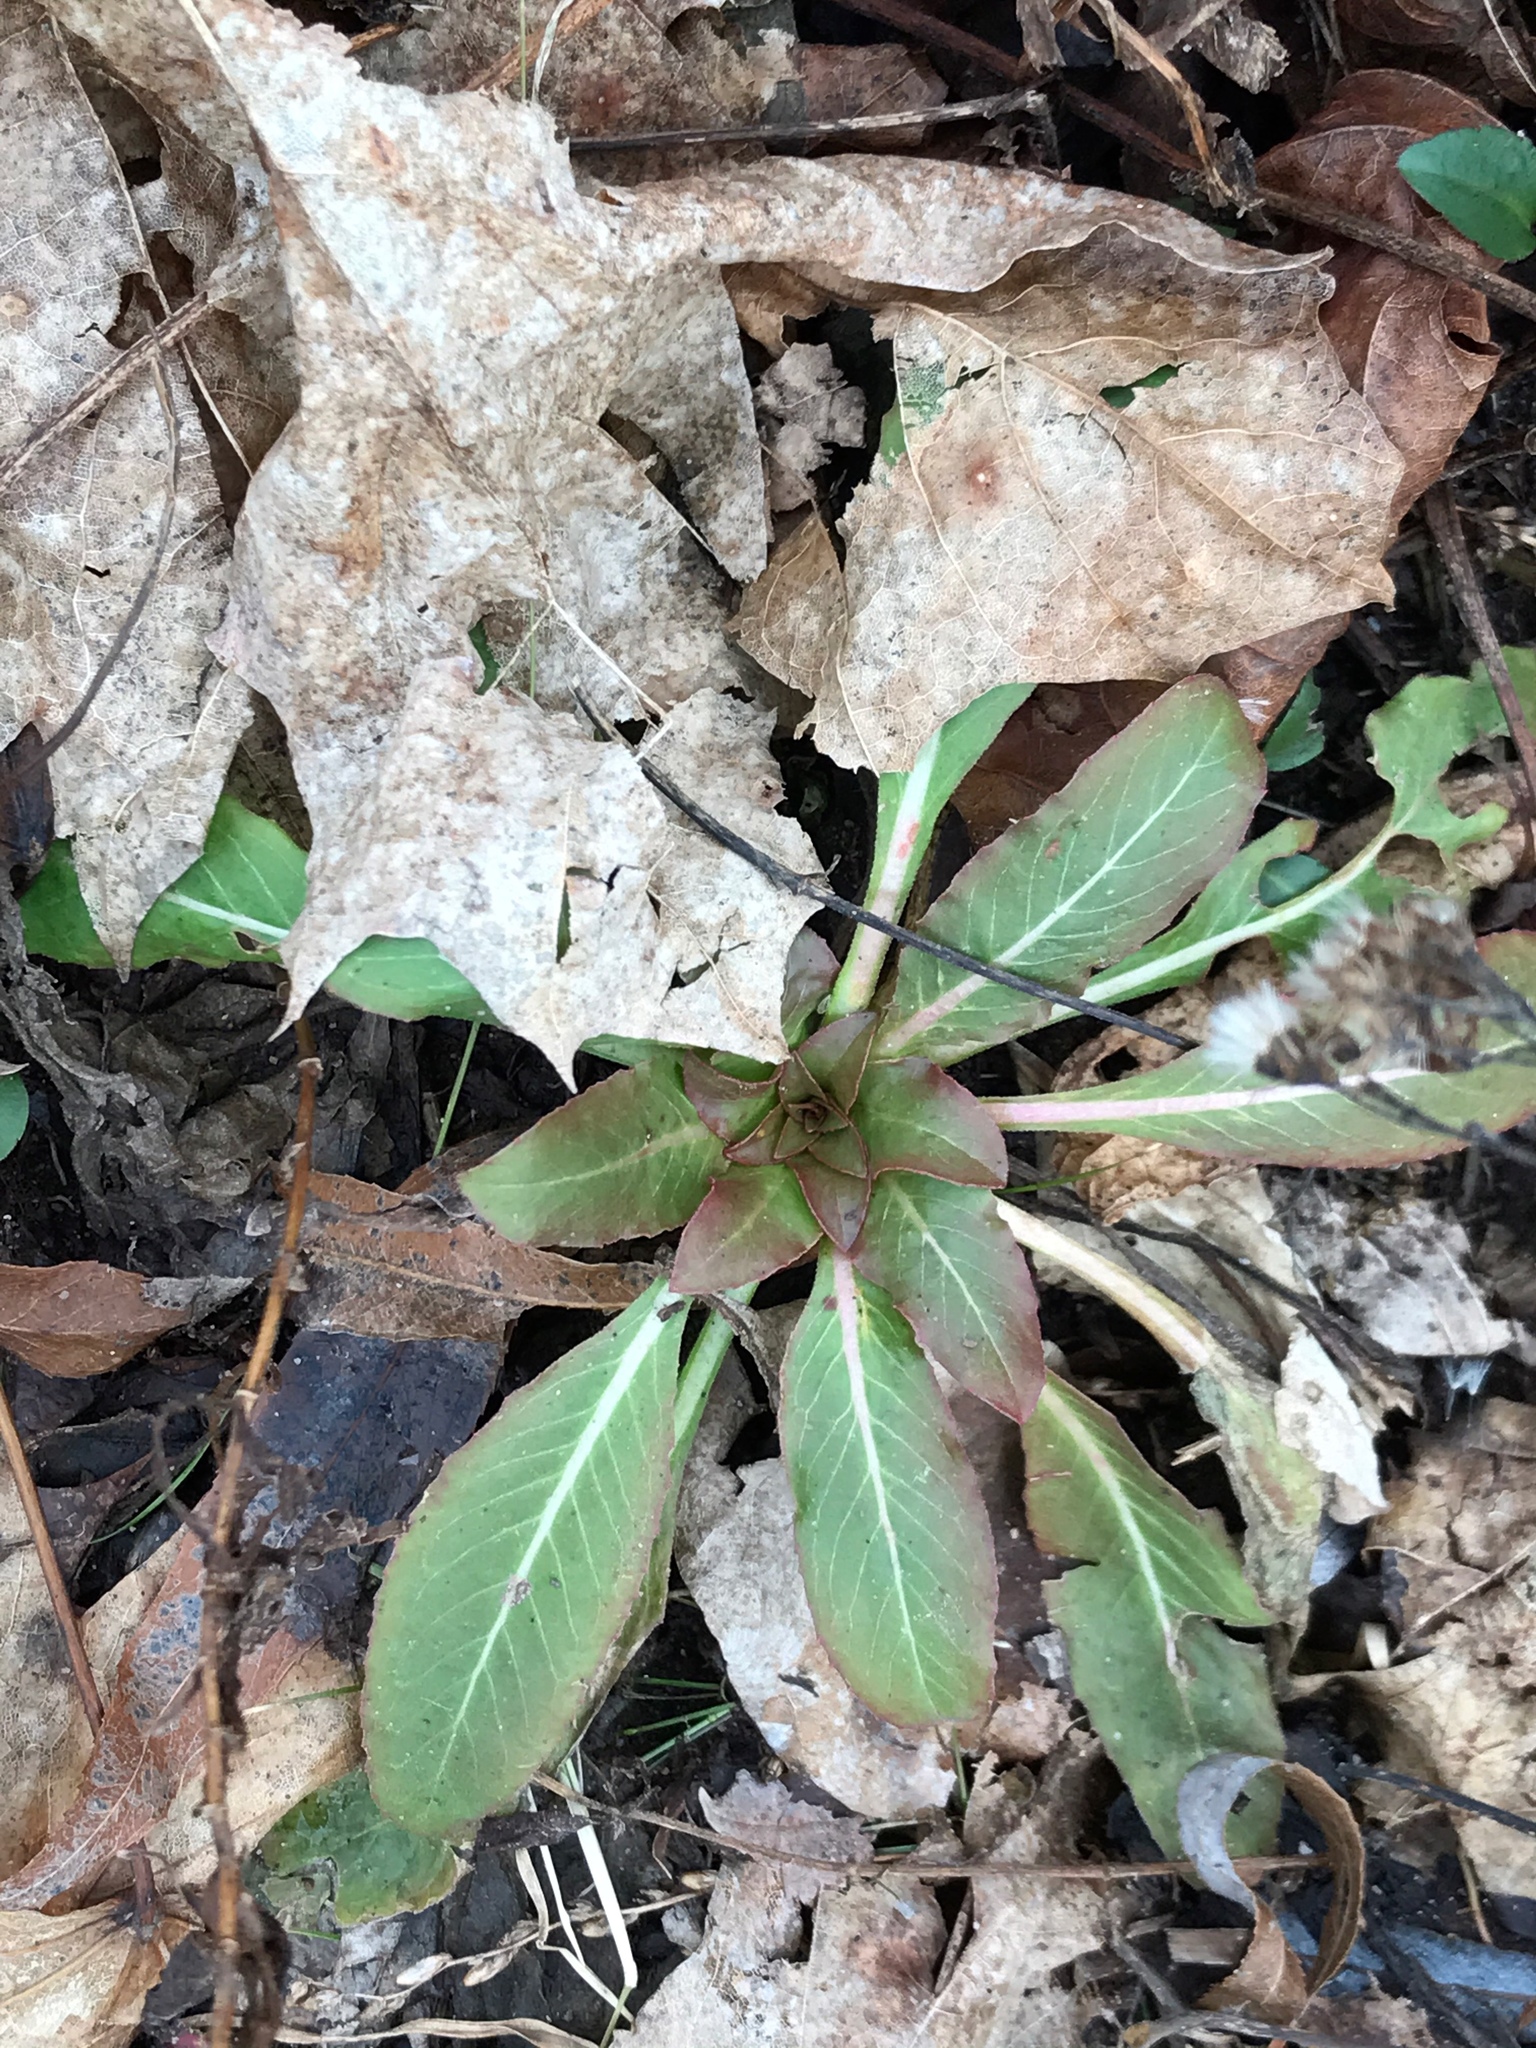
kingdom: Plantae
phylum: Tracheophyta
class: Magnoliopsida
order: Myrtales
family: Onagraceae
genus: Oenothera
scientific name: Oenothera biennis
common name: Common evening-primrose
